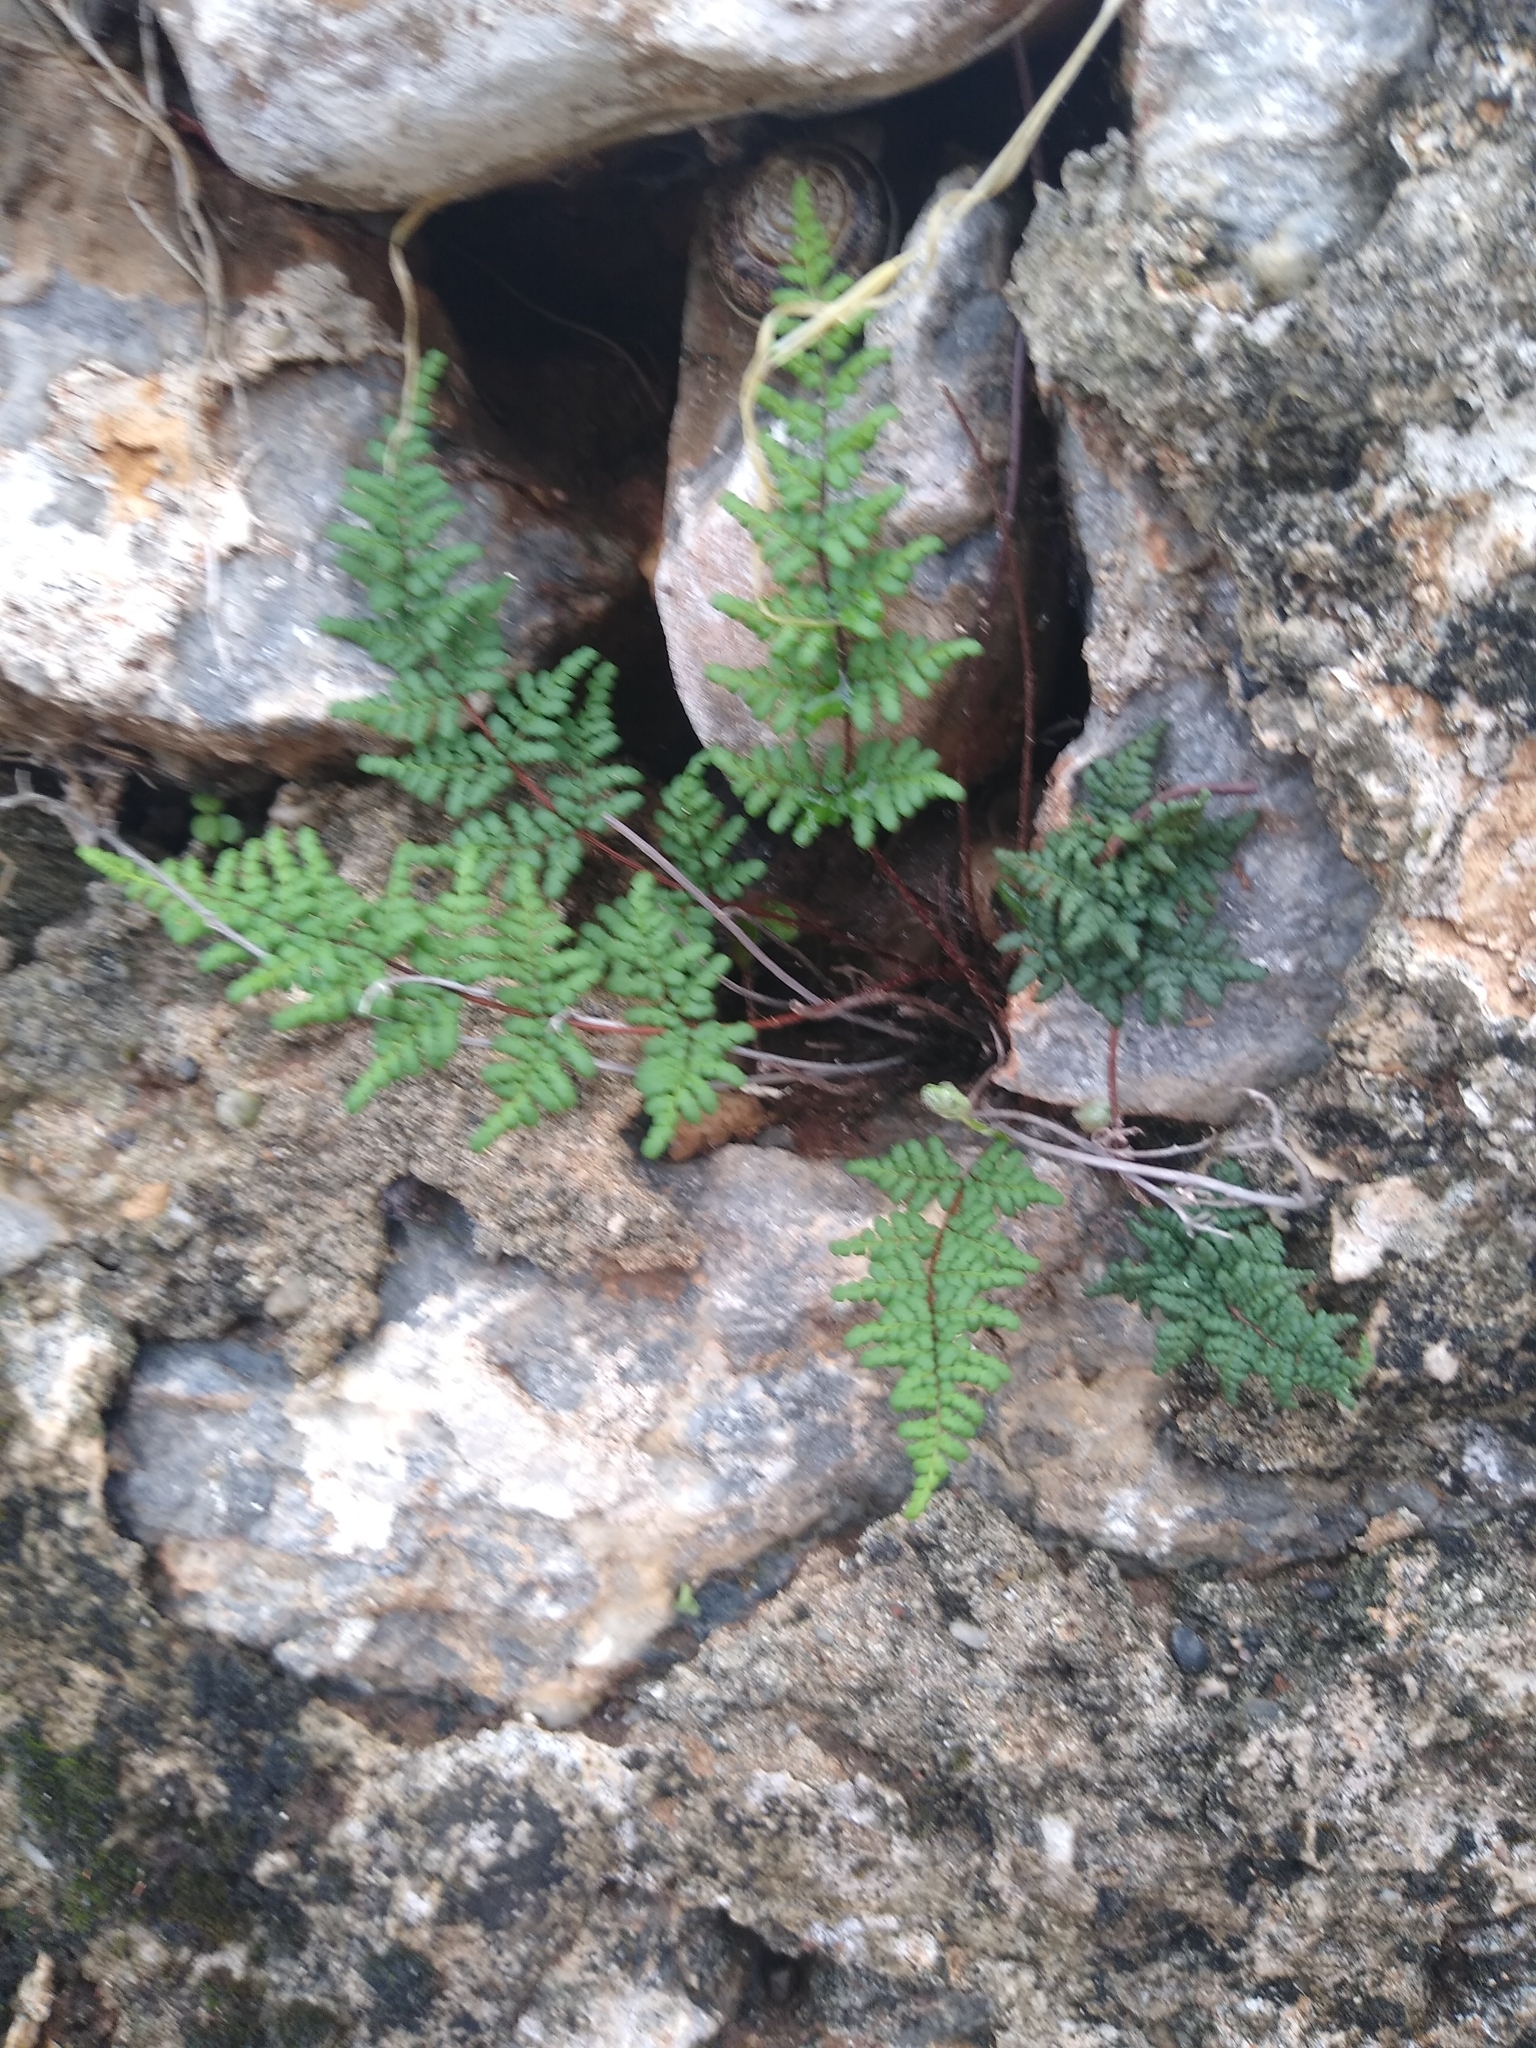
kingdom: Plantae
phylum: Tracheophyta
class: Polypodiopsida
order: Polypodiales
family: Pteridaceae
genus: Oeosporangium
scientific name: Oeosporangium pteridioides
